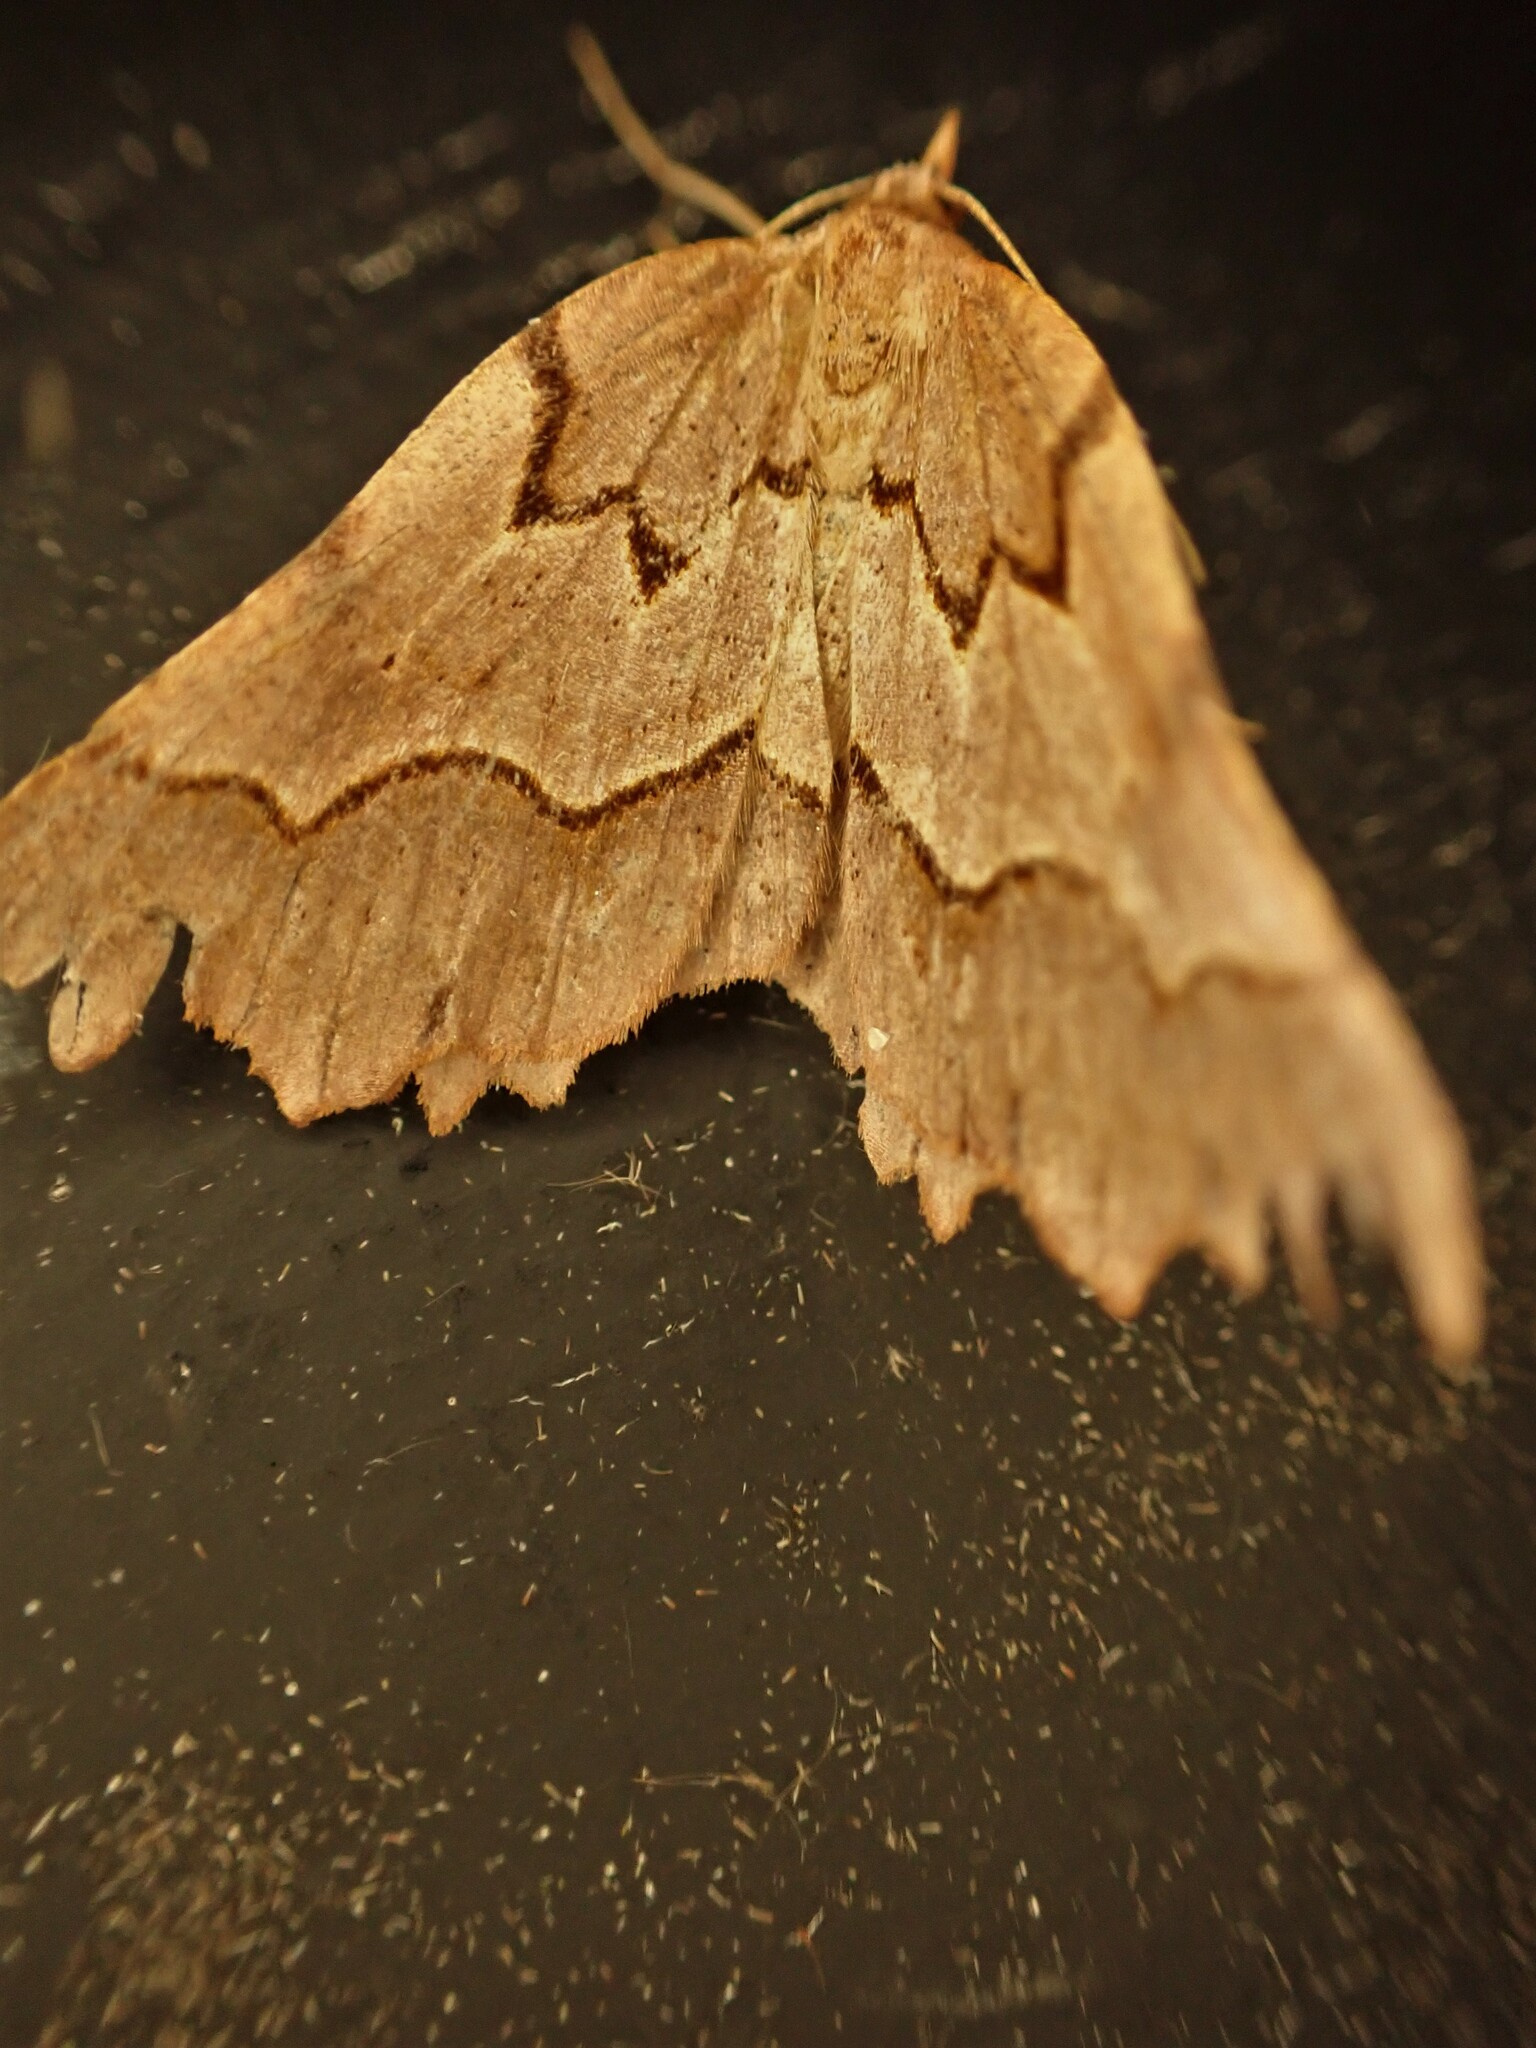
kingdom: Animalia
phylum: Arthropoda
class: Insecta
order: Lepidoptera
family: Geometridae
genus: Ischalis
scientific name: Ischalis fortinata
